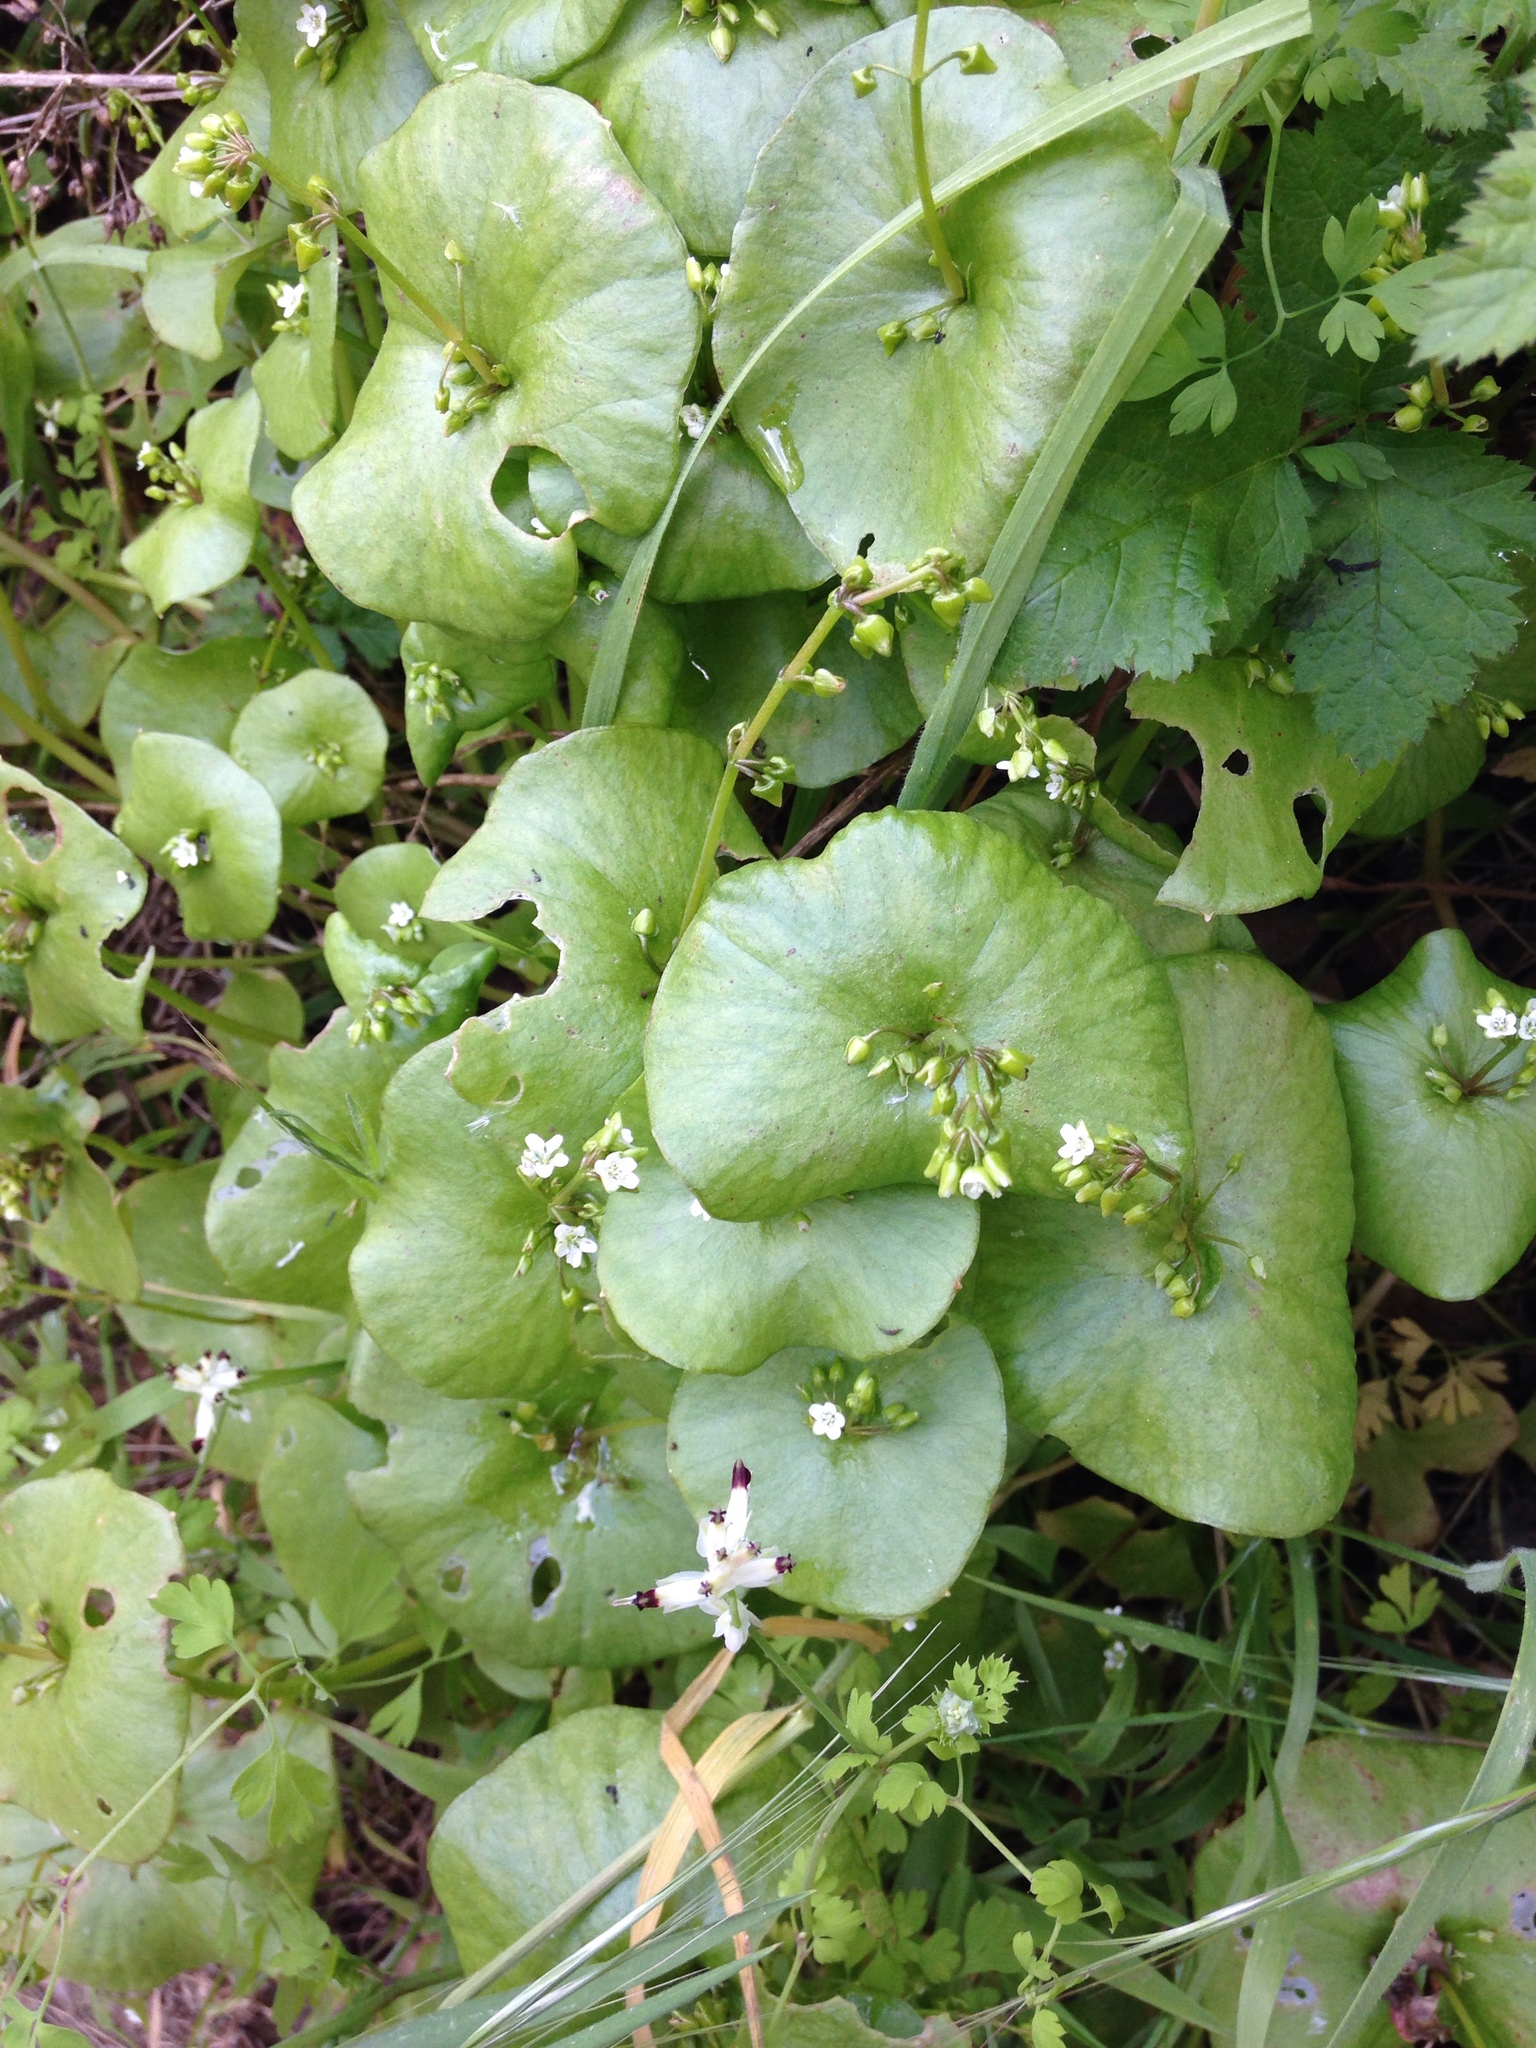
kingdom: Plantae
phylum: Tracheophyta
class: Magnoliopsida
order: Caryophyllales
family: Montiaceae
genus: Claytonia
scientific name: Claytonia perfoliata
